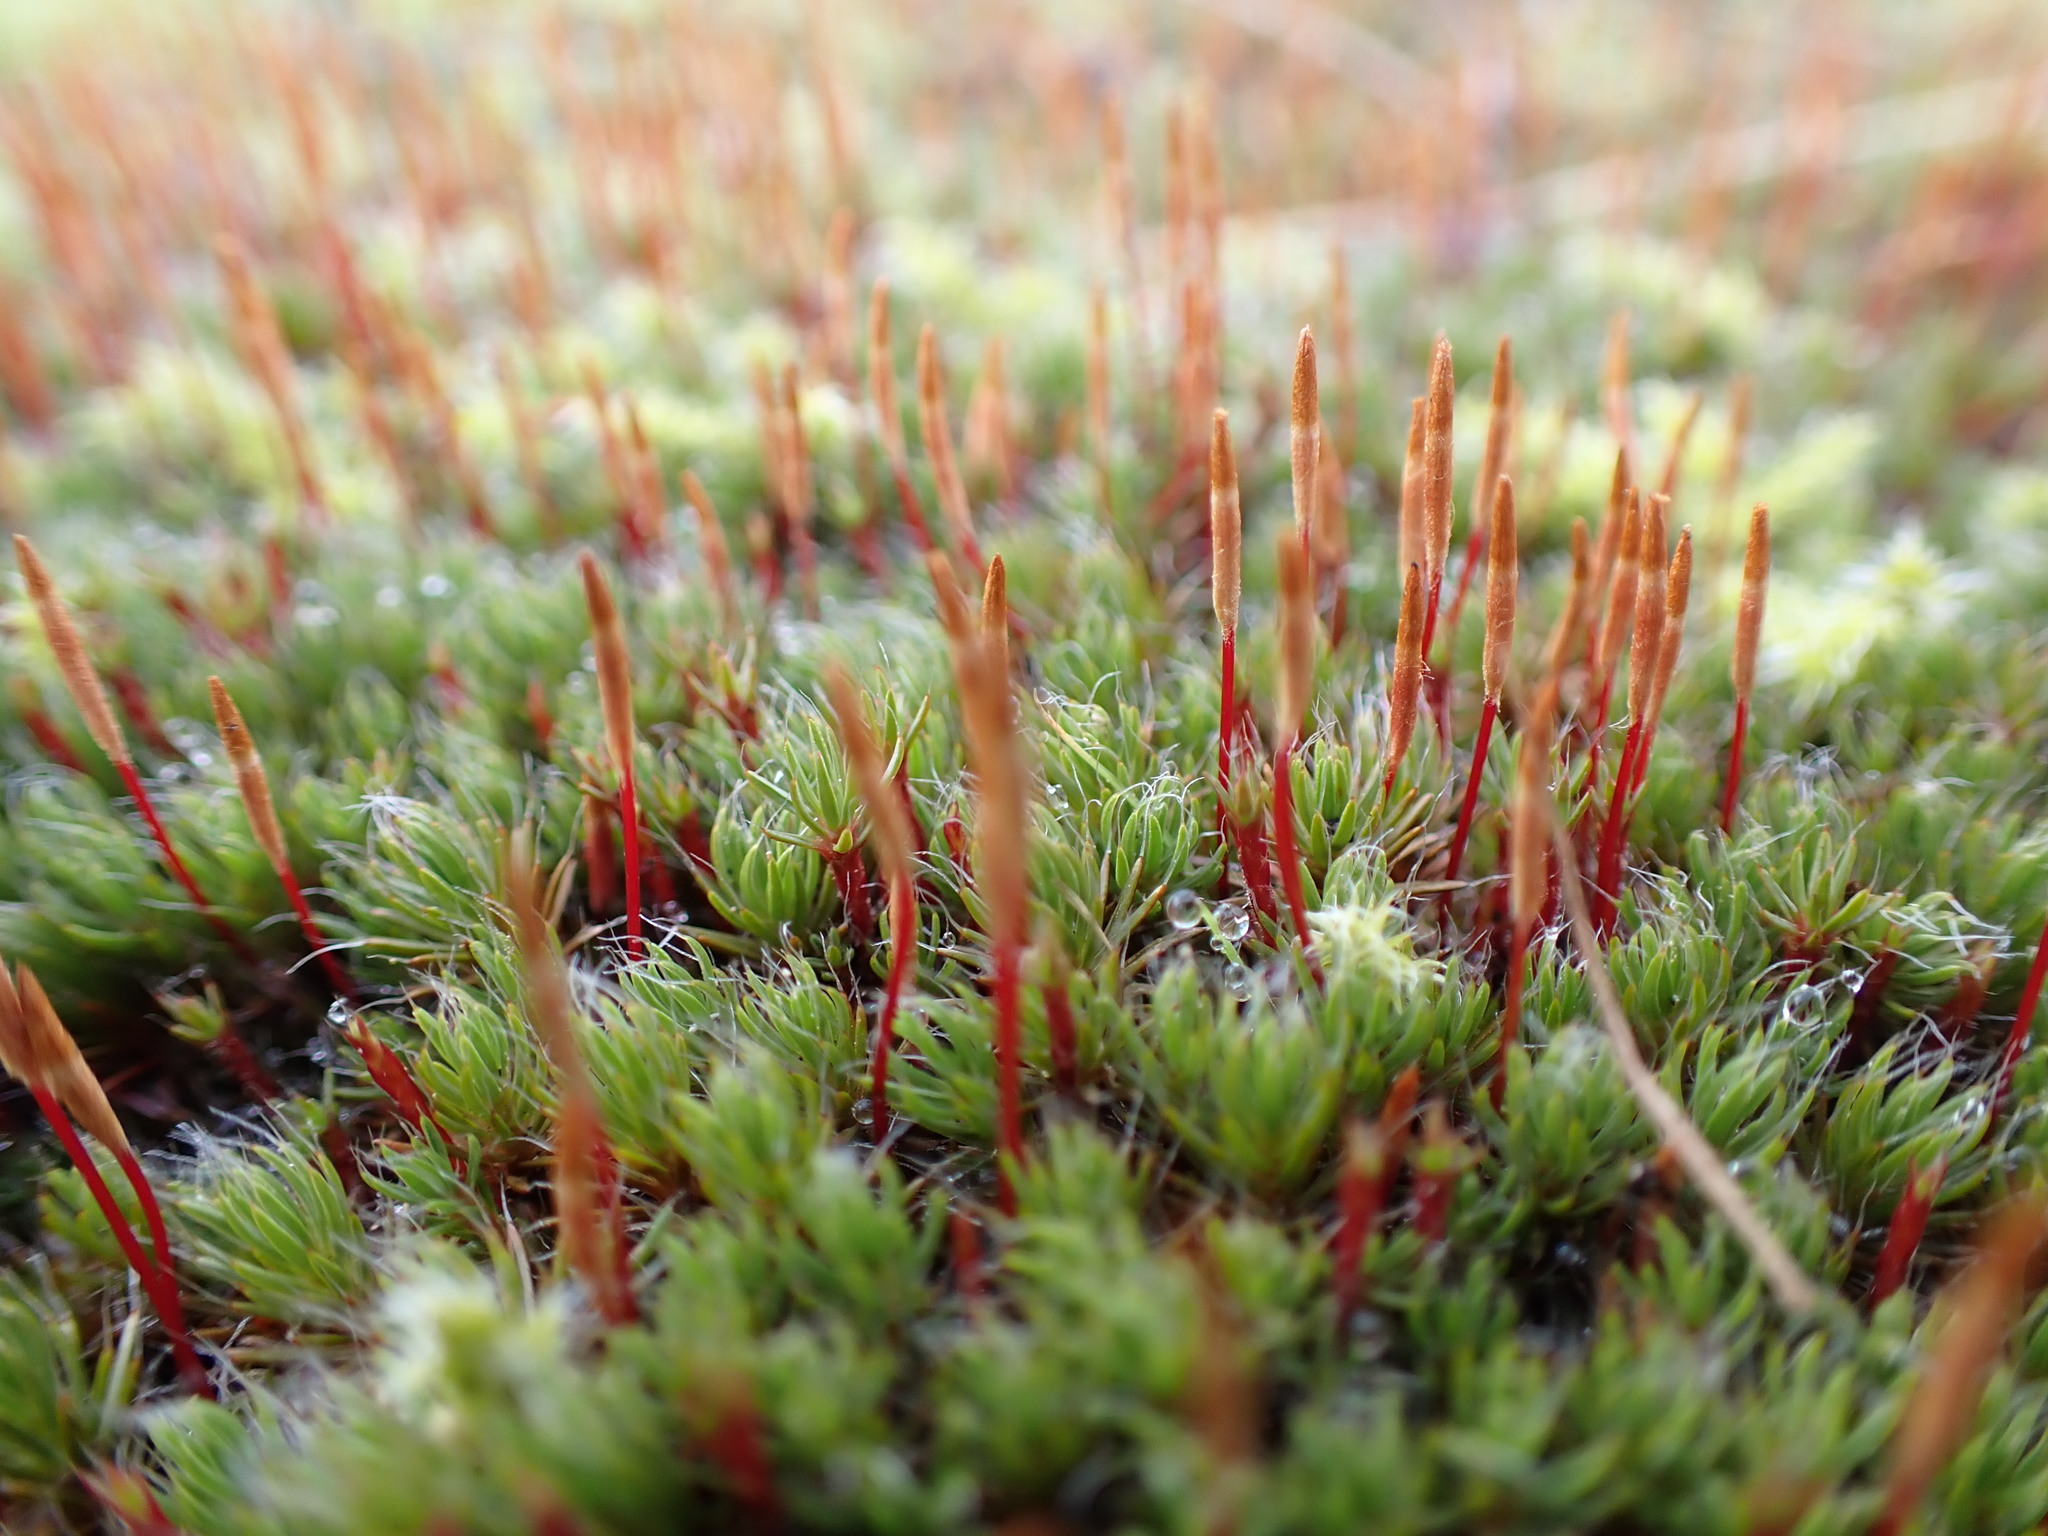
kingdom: Plantae
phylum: Bryophyta
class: Polytrichopsida
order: Polytrichales
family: Polytrichaceae
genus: Polytrichum
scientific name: Polytrichum piliferum
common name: Bristly haircap
